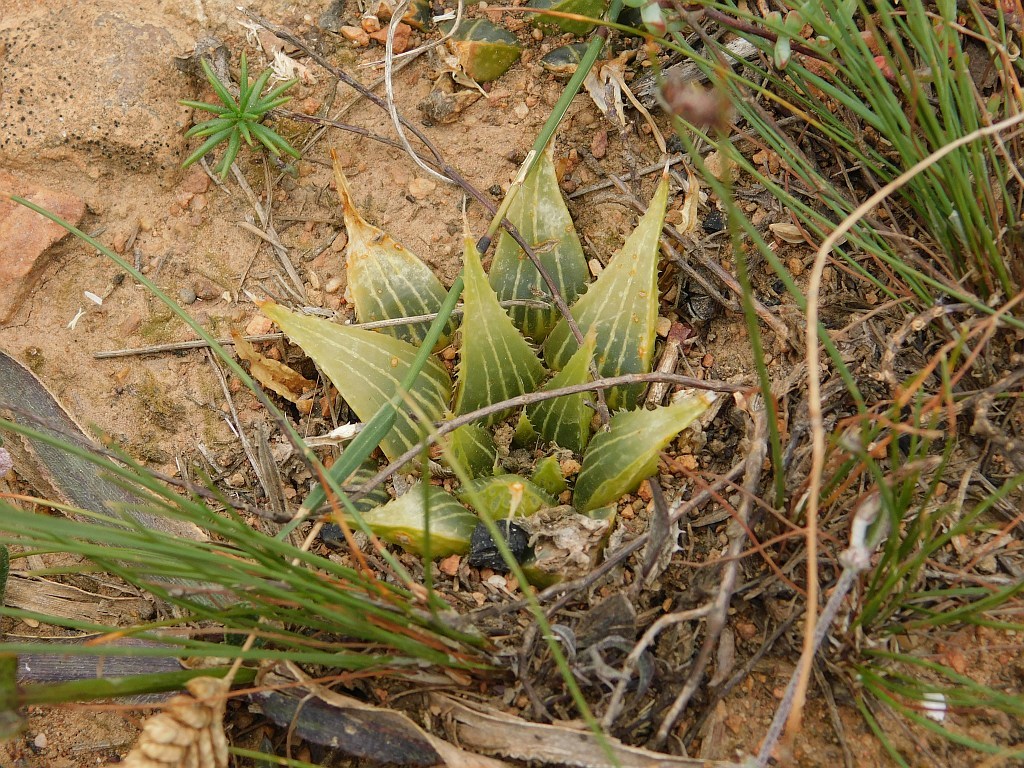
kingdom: Plantae
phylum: Tracheophyta
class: Liliopsida
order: Asparagales
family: Asphodelaceae
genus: Haworthia
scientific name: Haworthia mirabilis
